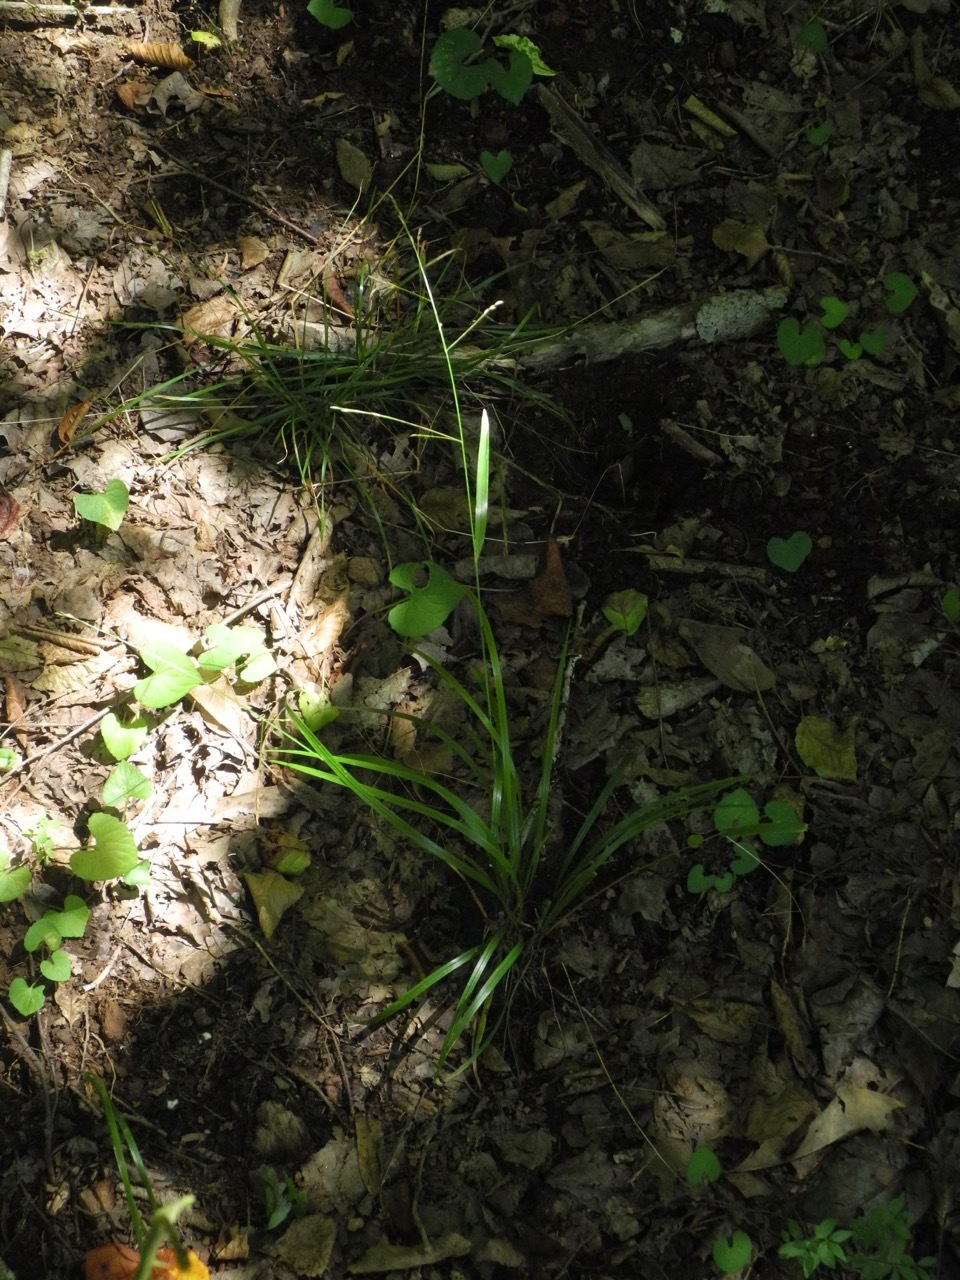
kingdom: Plantae
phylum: Tracheophyta
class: Liliopsida
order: Poales
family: Poaceae
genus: Festuca
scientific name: Festuca subverticillata
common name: Nodding fescue
